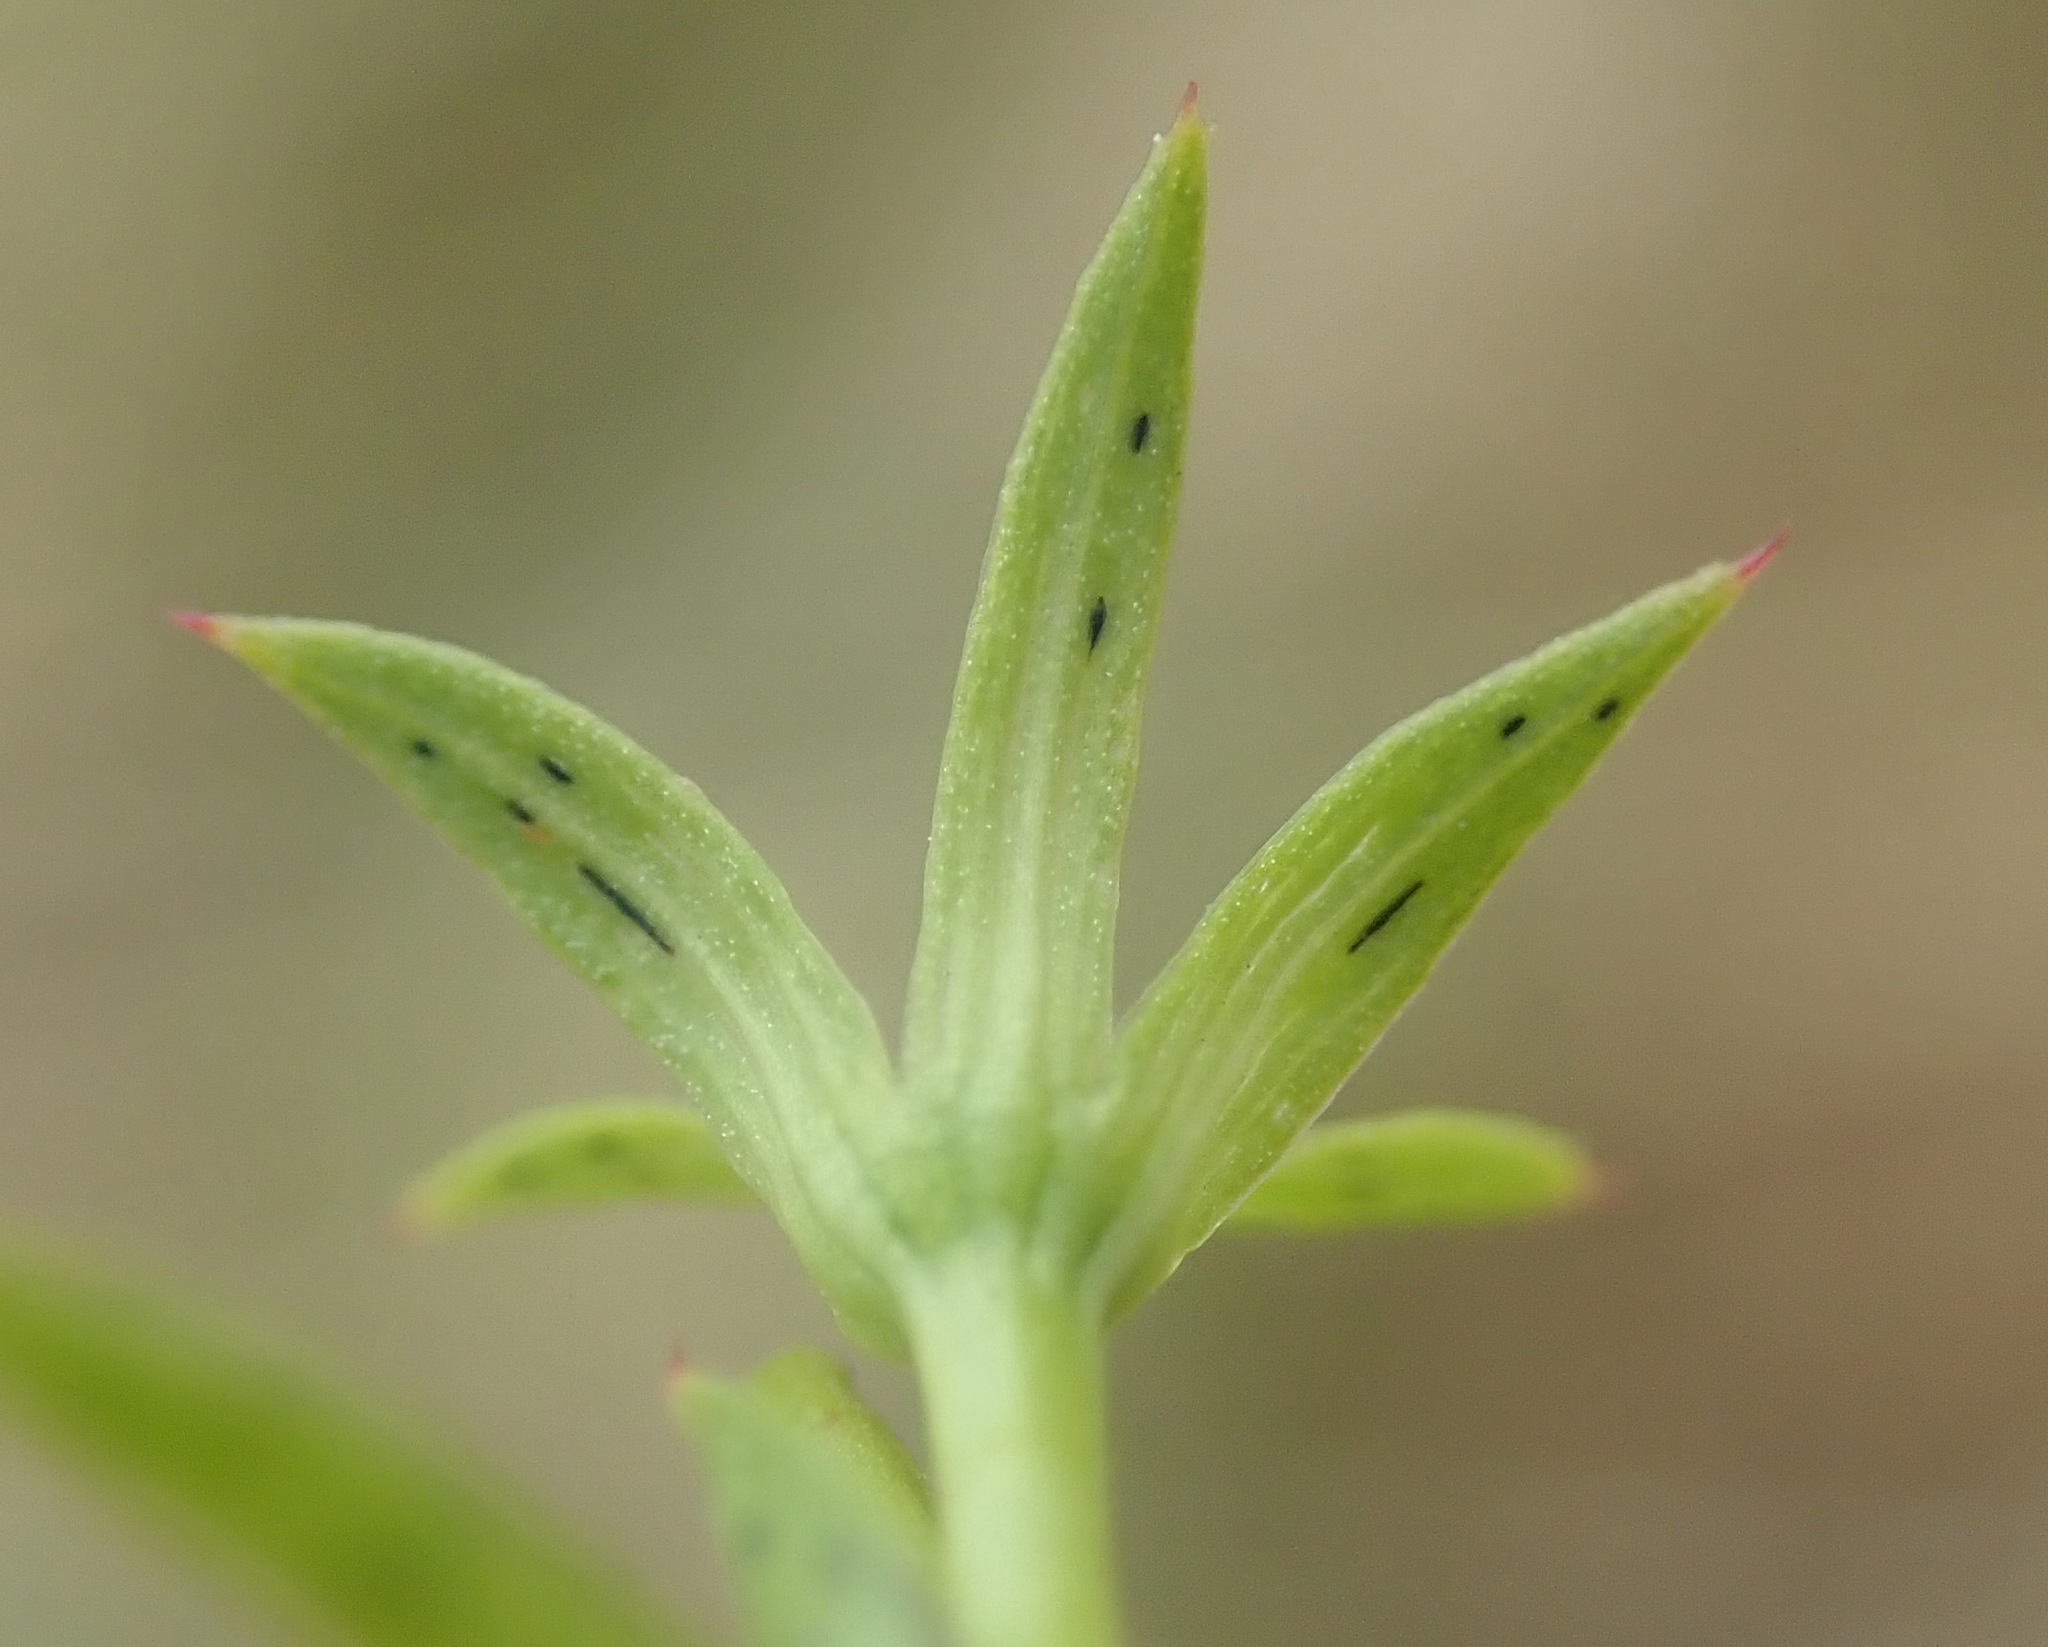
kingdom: Plantae
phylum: Tracheophyta
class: Magnoliopsida
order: Malpighiales
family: Hypericaceae
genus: Hypericum
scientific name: Hypericum perforatum
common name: Common st. johnswort
